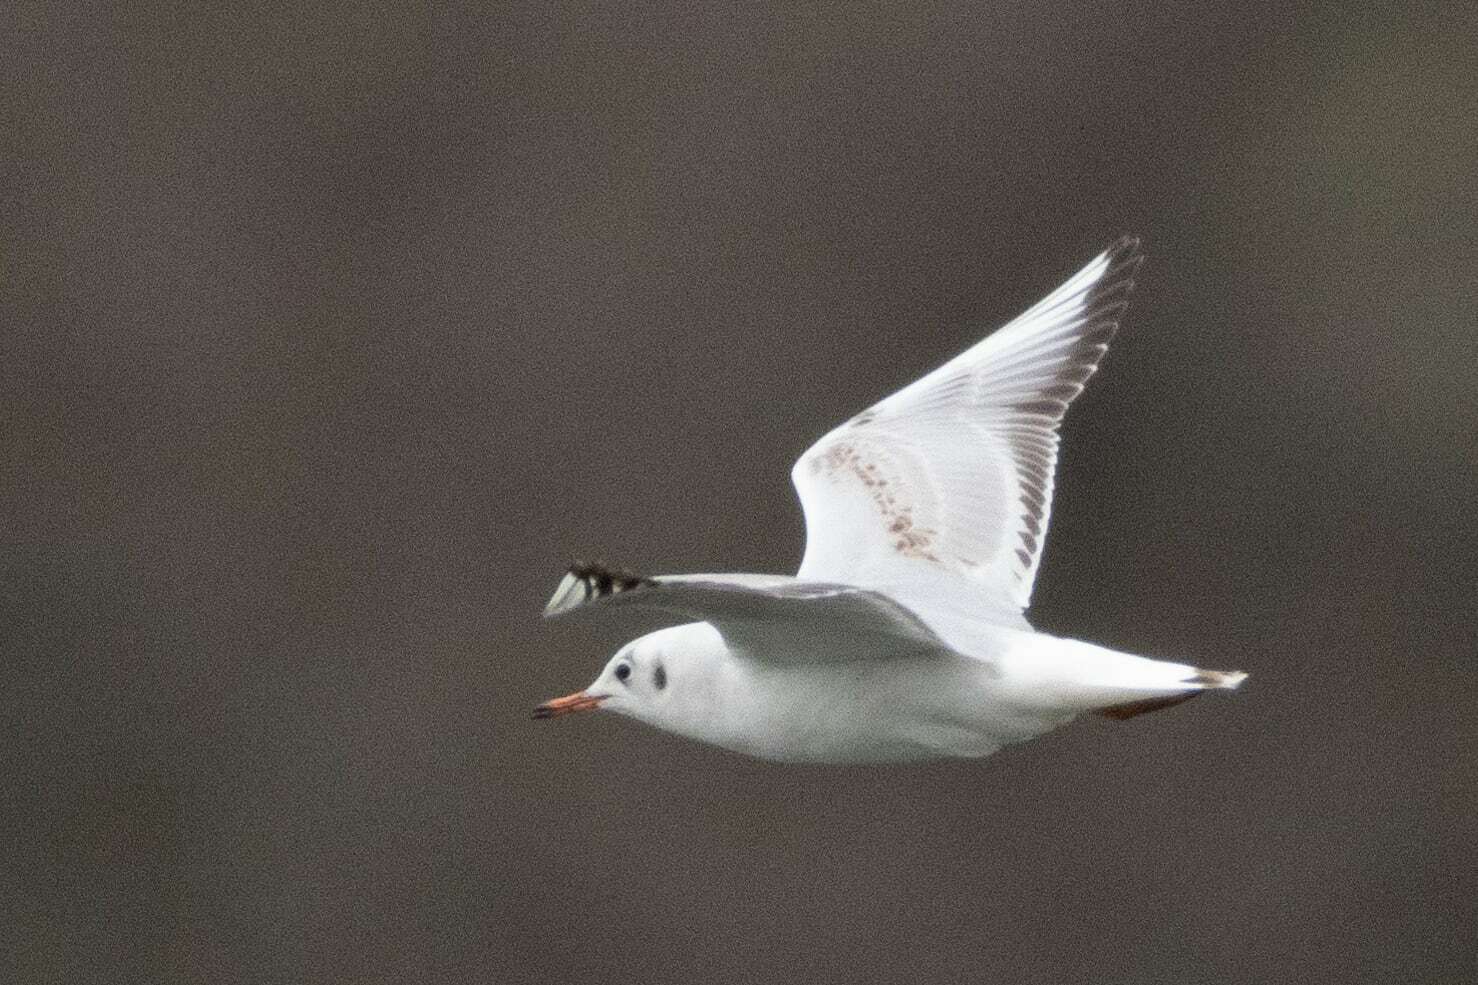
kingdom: Animalia
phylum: Chordata
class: Aves
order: Charadriiformes
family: Laridae
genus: Chroicocephalus
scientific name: Chroicocephalus ridibundus
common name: Black-headed gull
